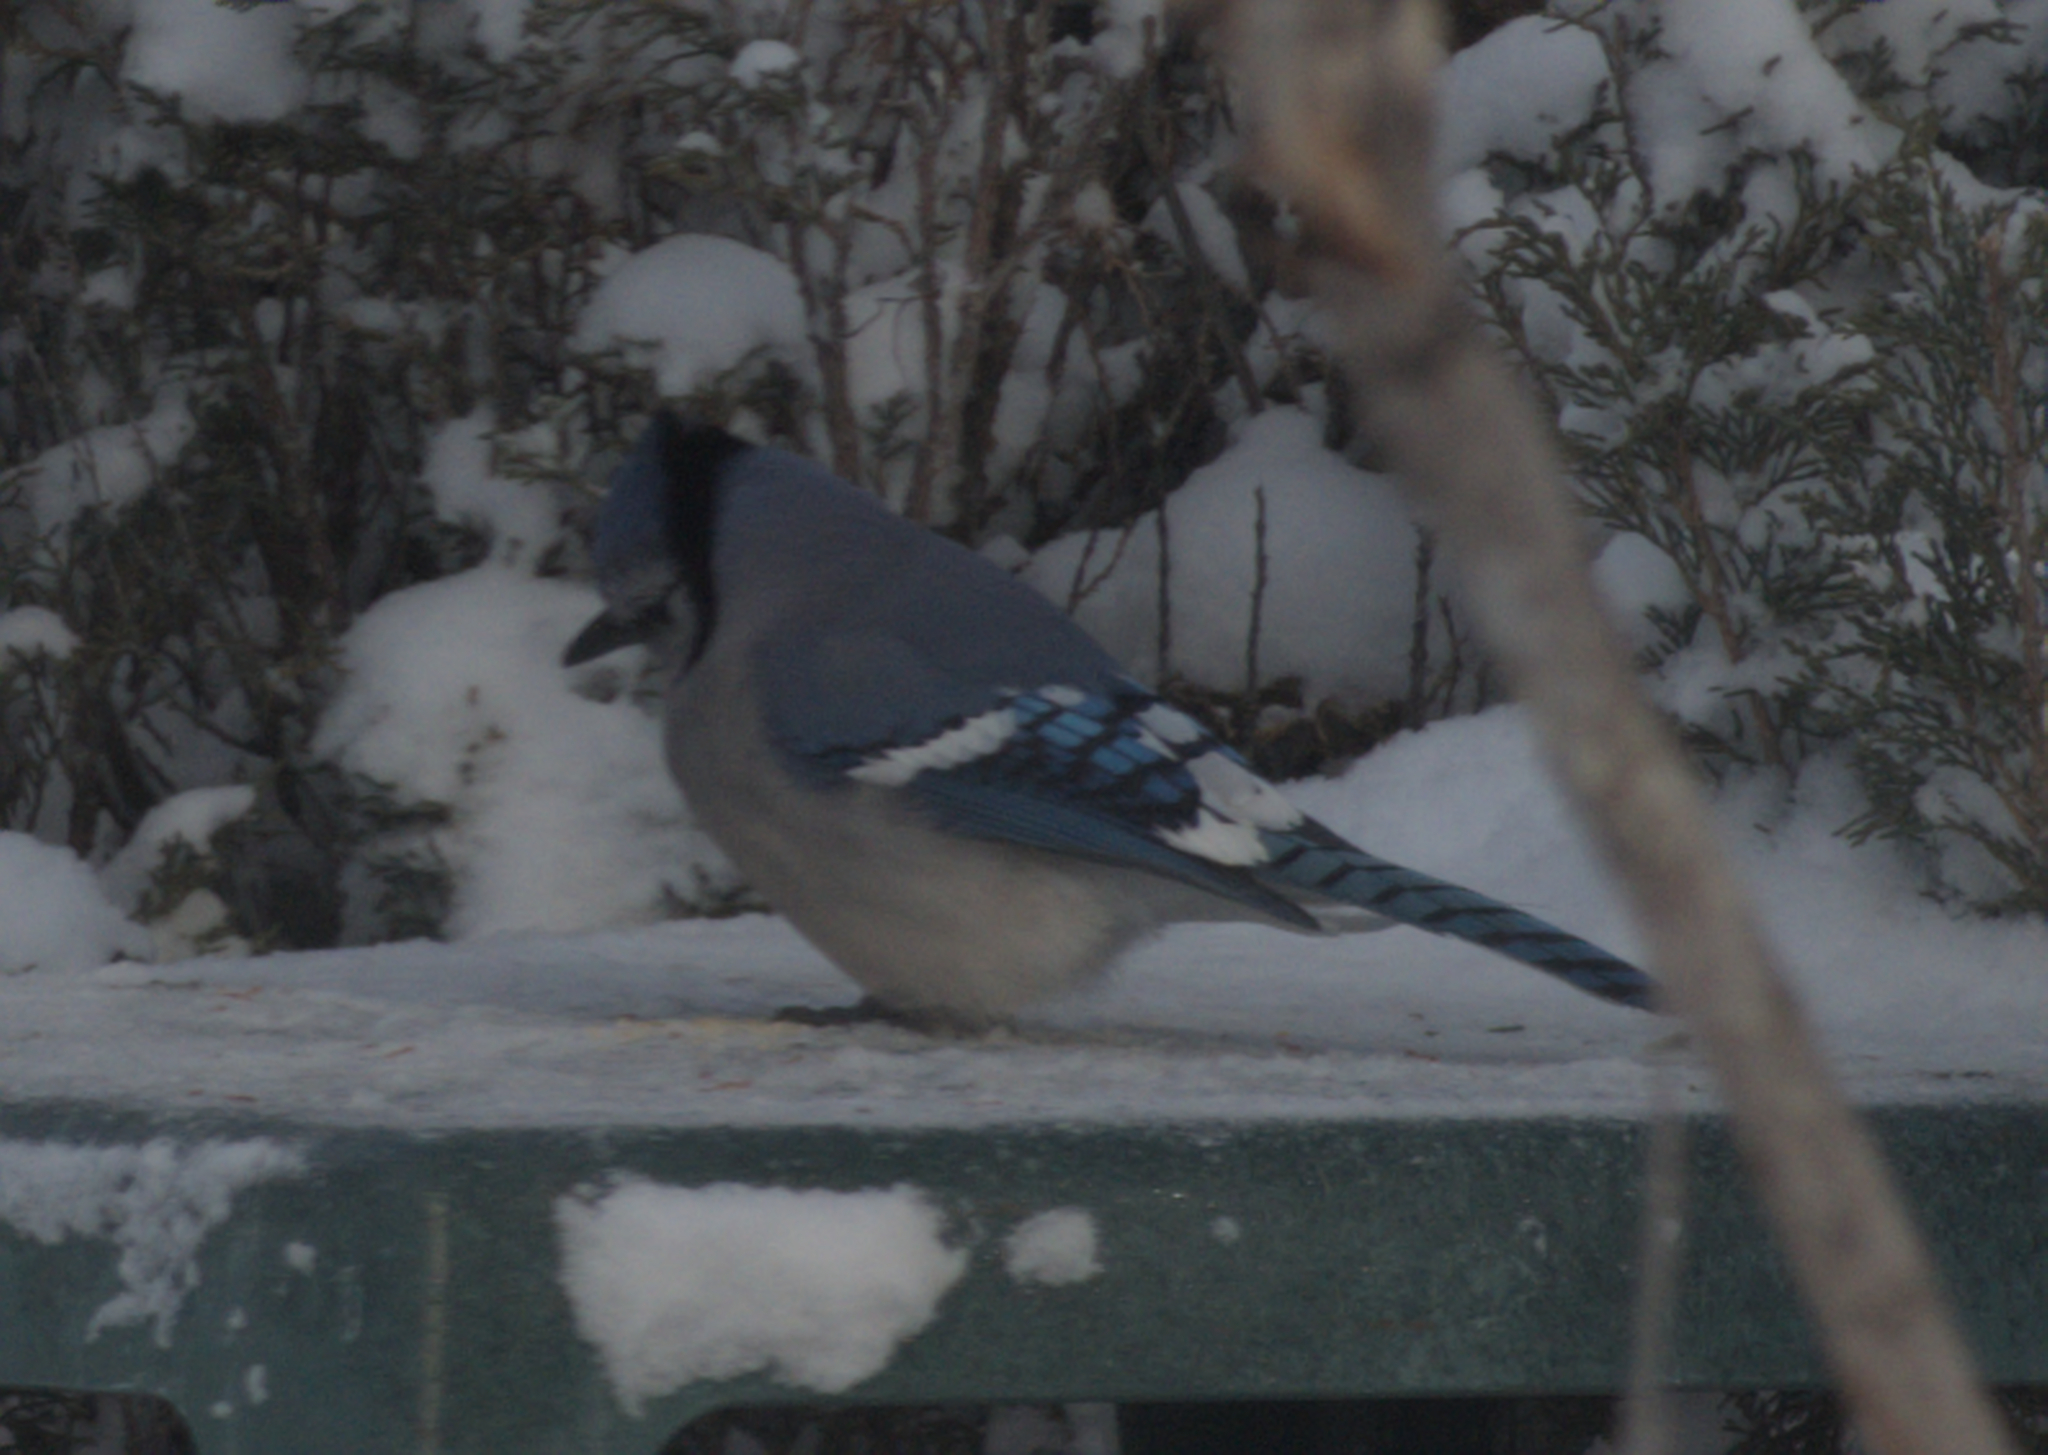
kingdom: Animalia
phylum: Chordata
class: Aves
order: Passeriformes
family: Corvidae
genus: Cyanocitta
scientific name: Cyanocitta cristata
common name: Blue jay
